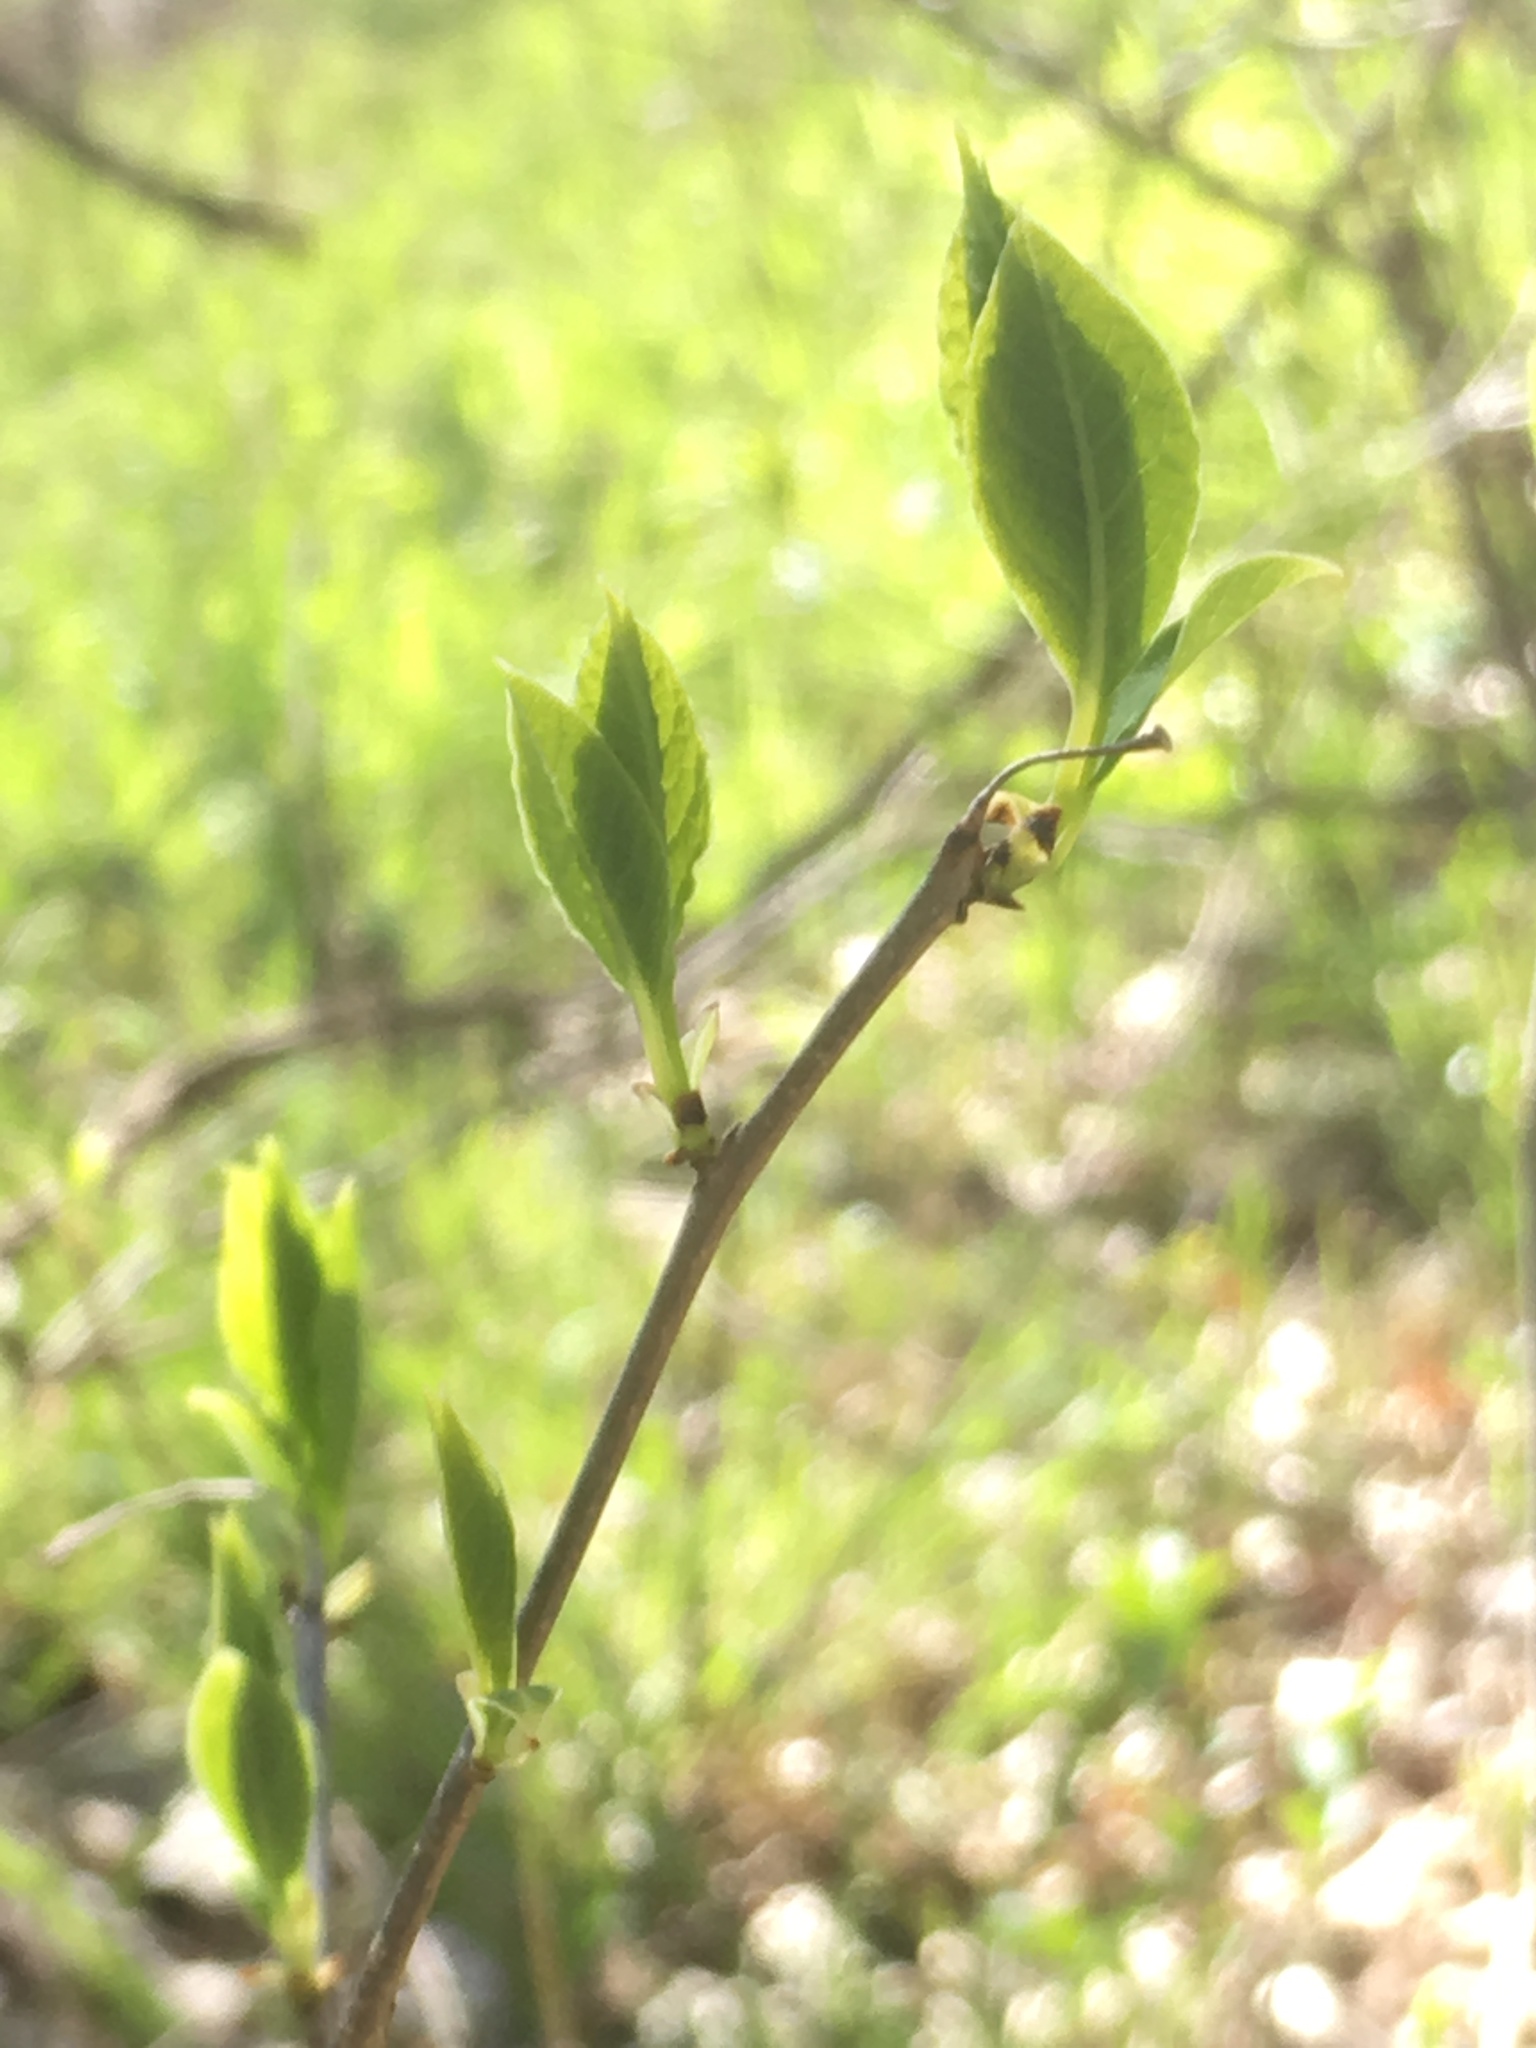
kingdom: Plantae
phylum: Tracheophyta
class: Magnoliopsida
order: Laurales
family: Lauraceae
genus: Lindera
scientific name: Lindera benzoin
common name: Spicebush
